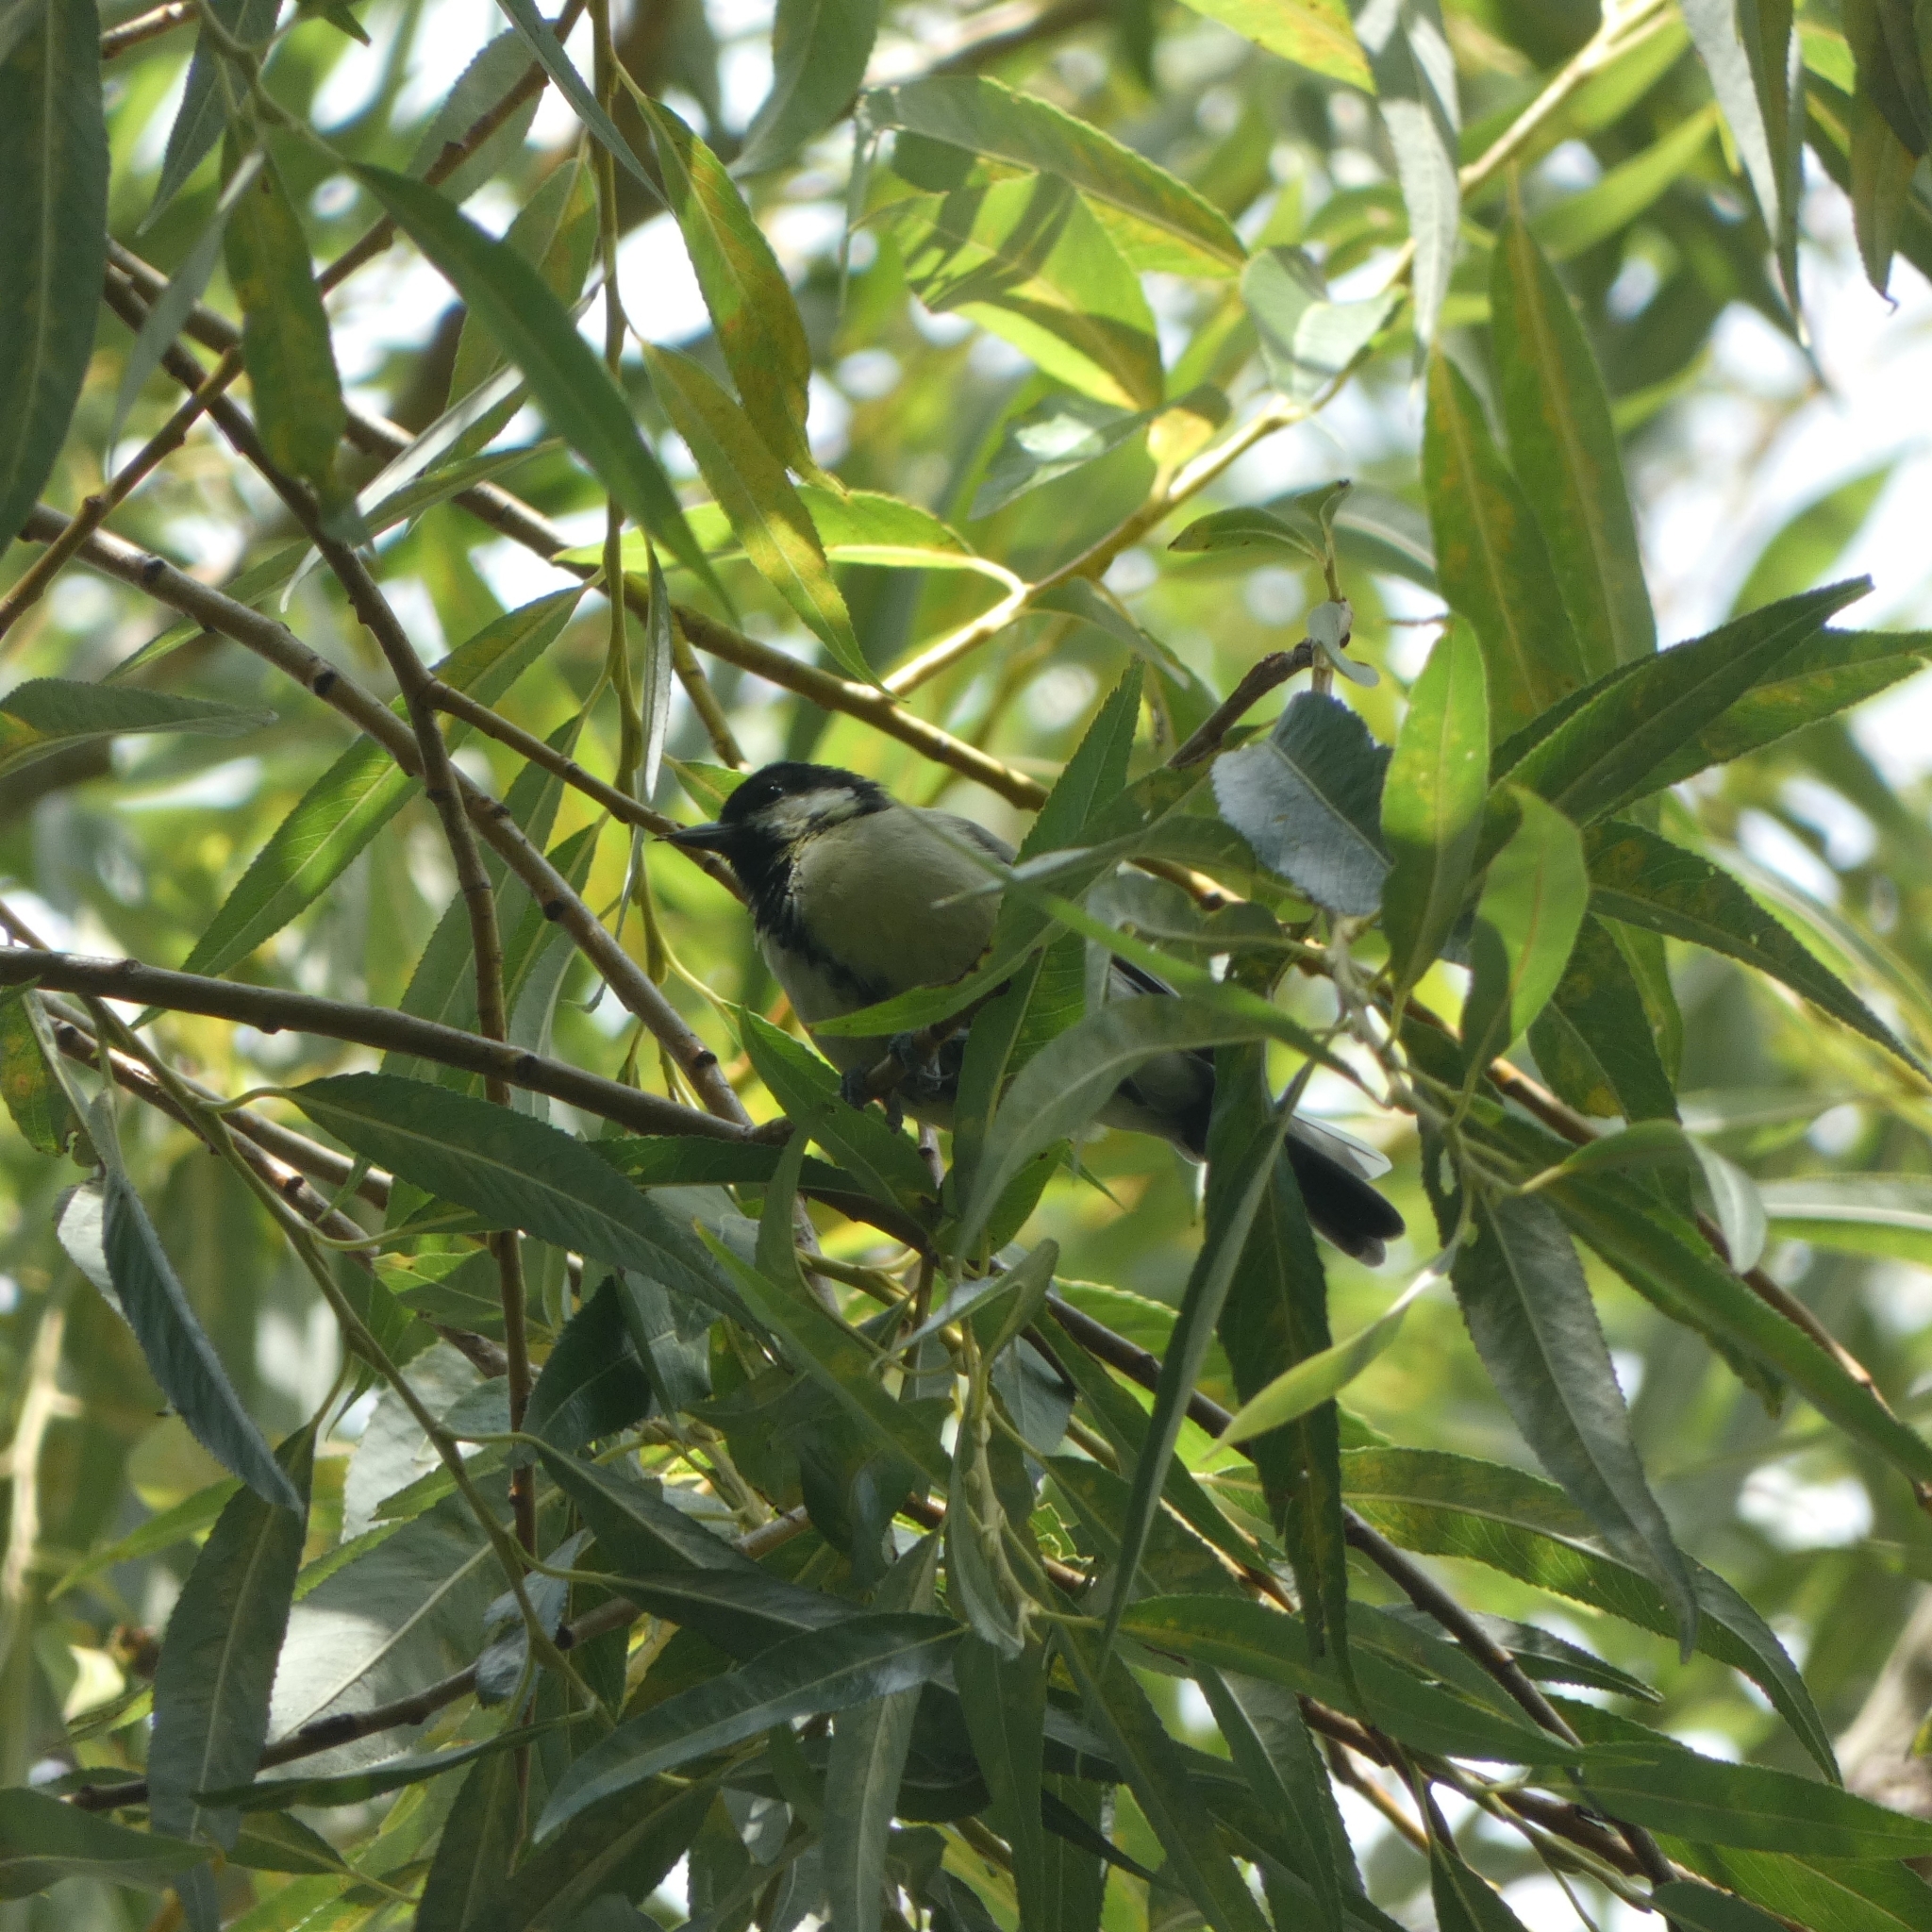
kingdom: Animalia
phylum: Chordata
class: Aves
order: Passeriformes
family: Paridae
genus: Parus
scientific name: Parus major
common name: Great tit
